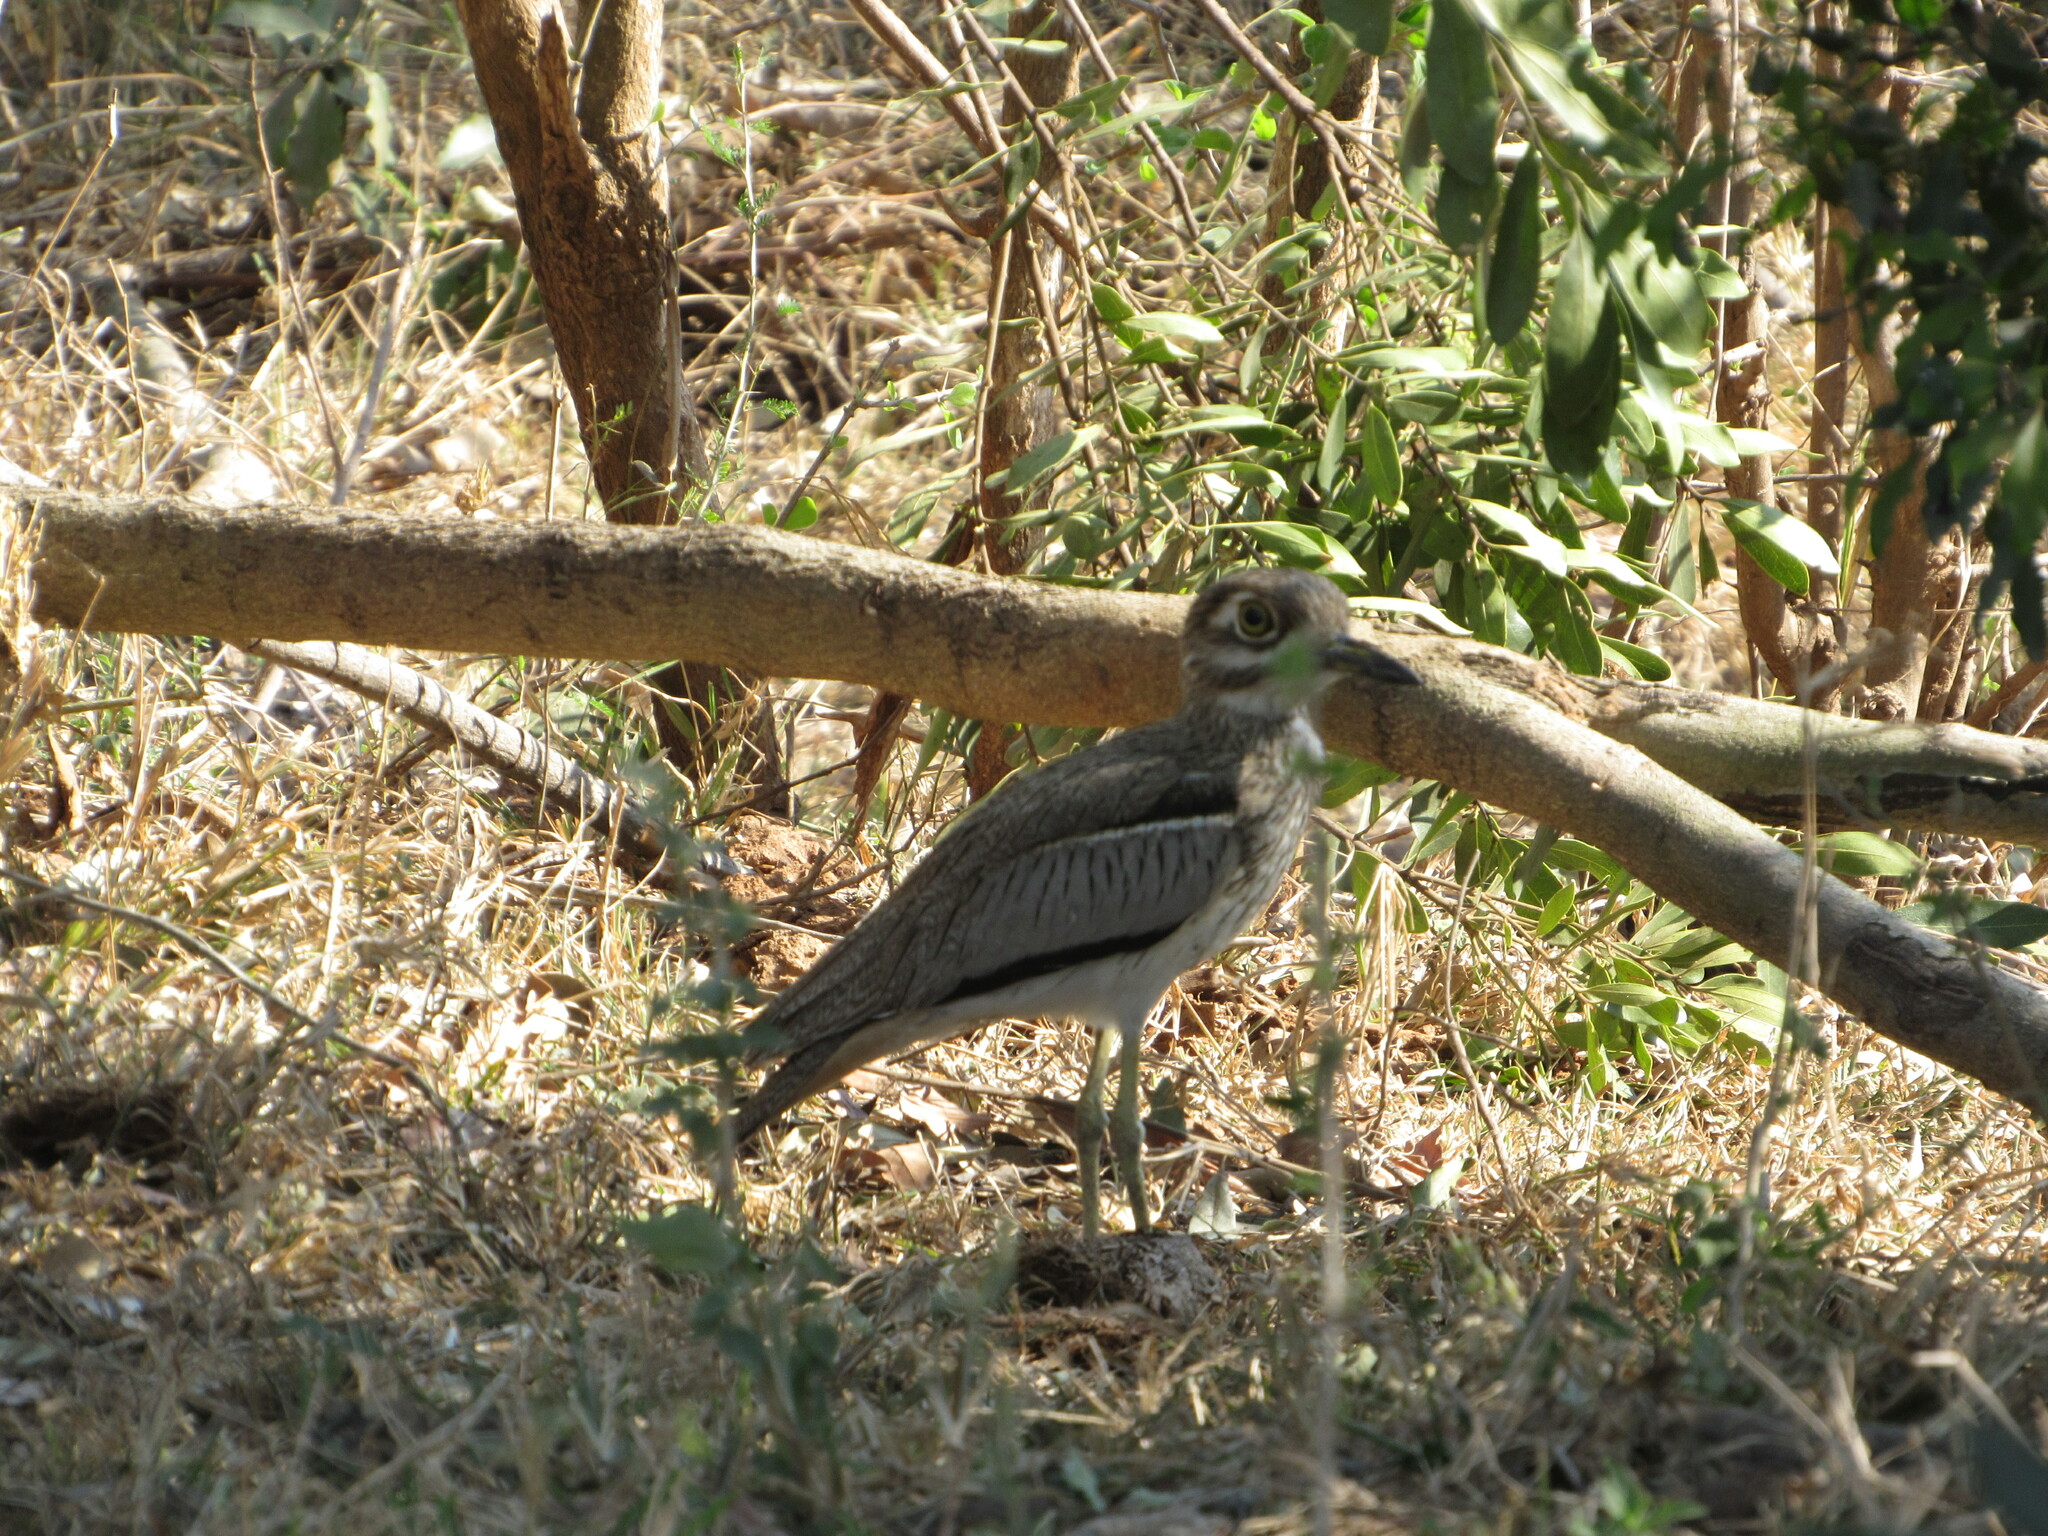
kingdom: Animalia
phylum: Chordata
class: Aves
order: Charadriiformes
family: Burhinidae
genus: Burhinus
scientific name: Burhinus vermiculatus
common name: Water thick-knee
